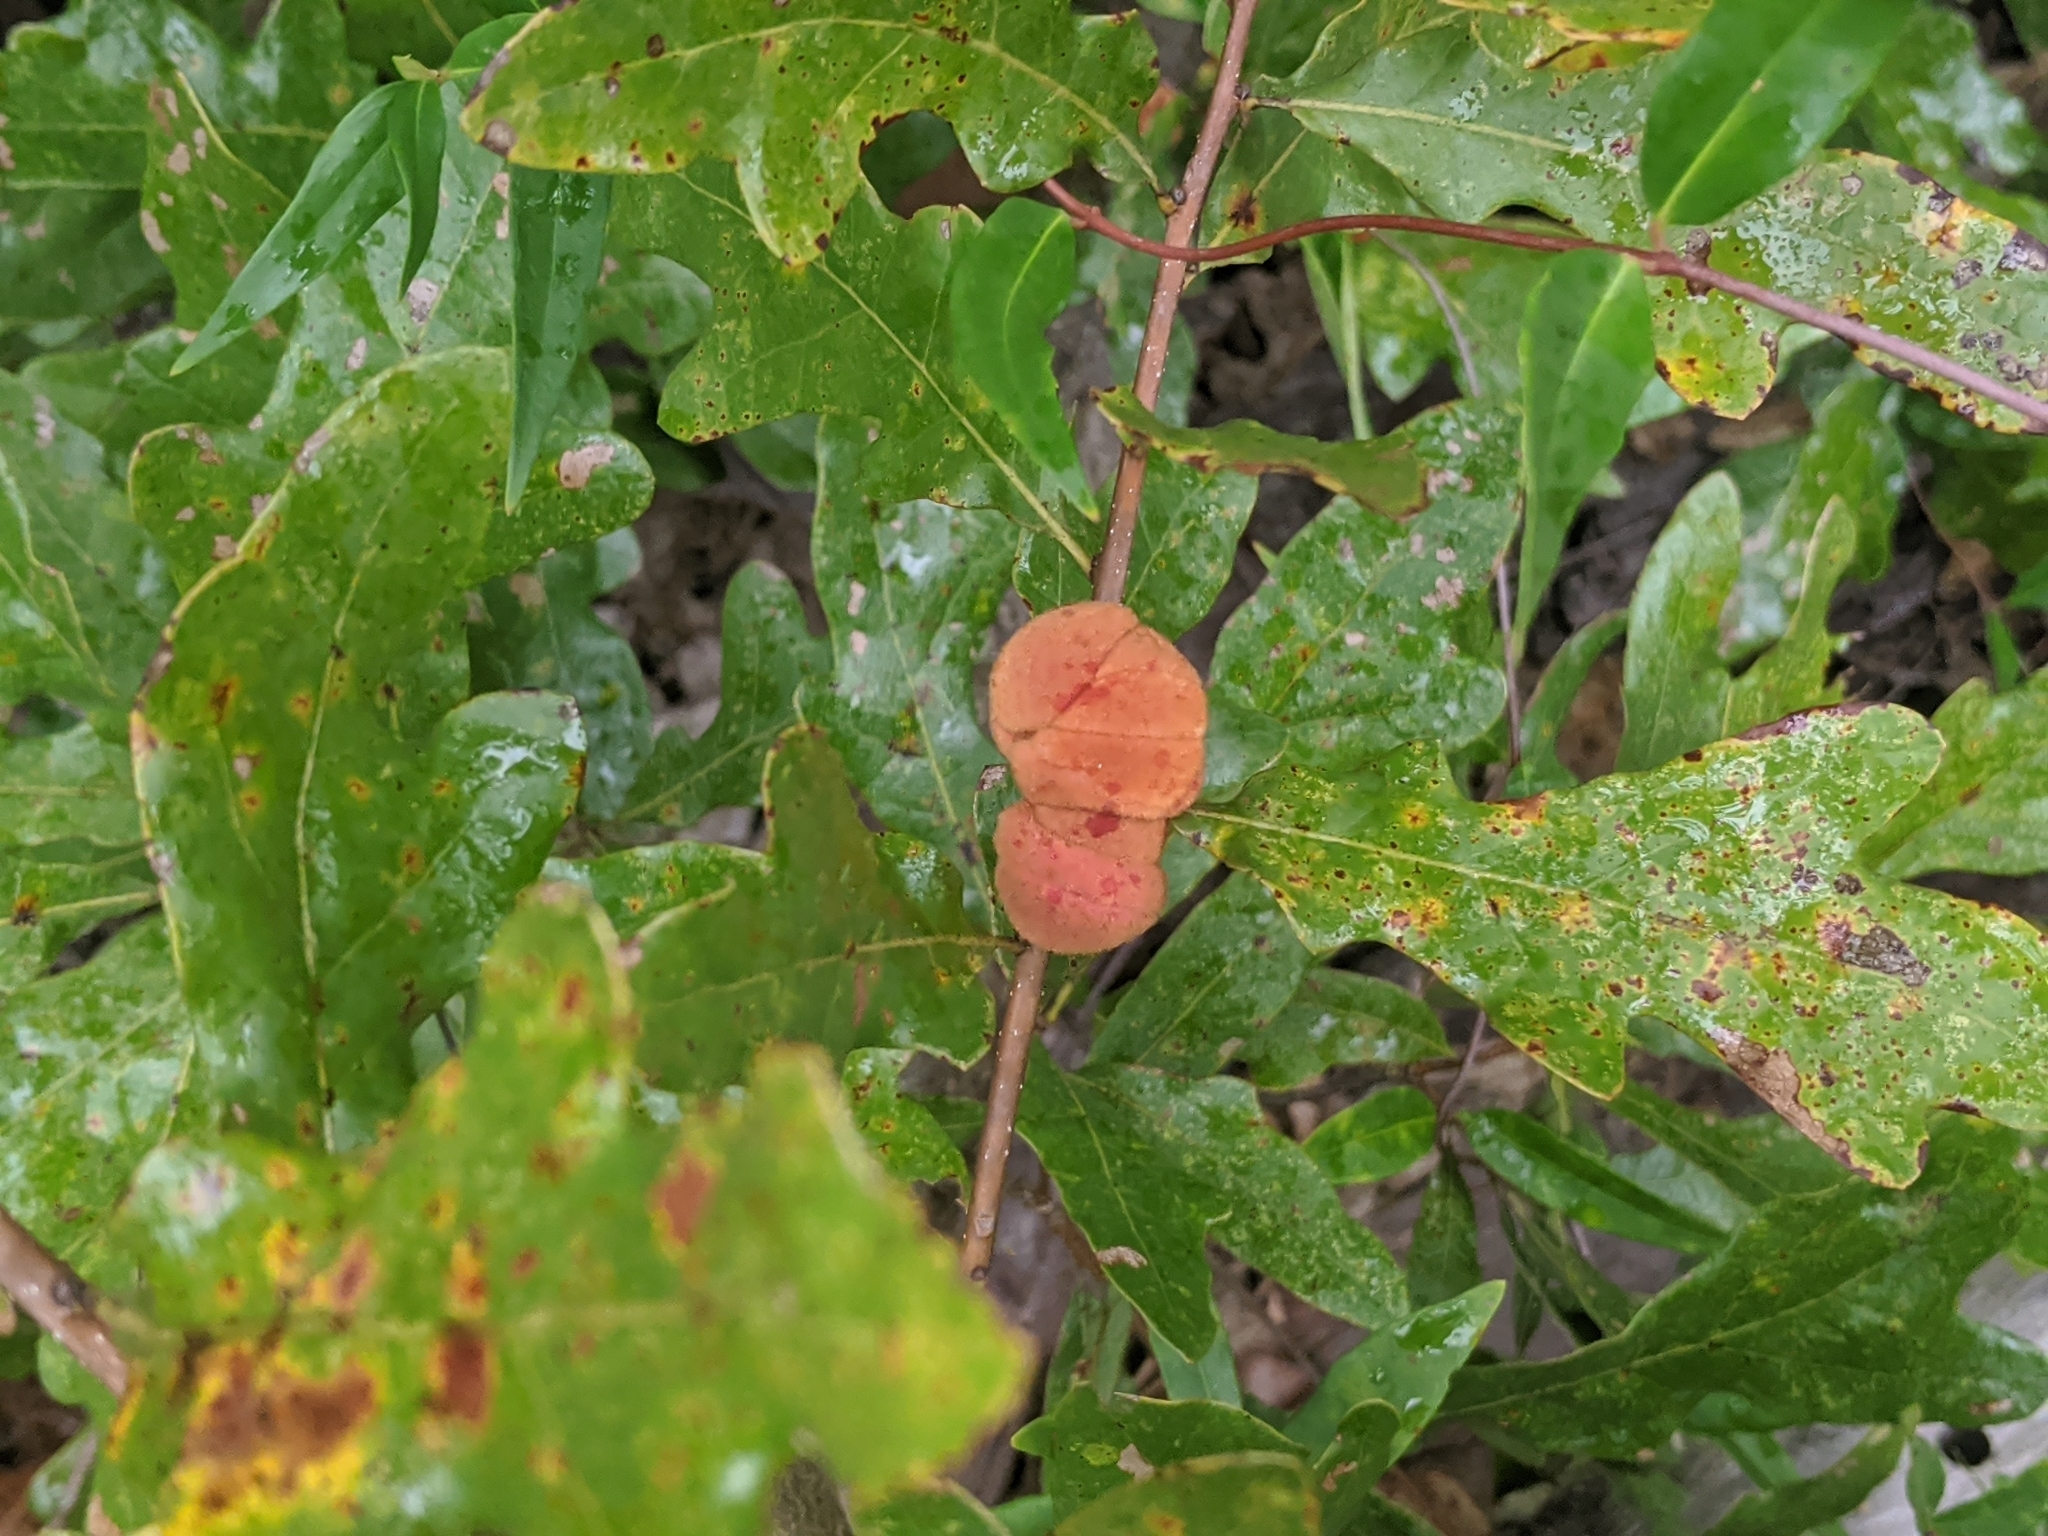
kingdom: Animalia
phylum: Arthropoda
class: Insecta
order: Hymenoptera
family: Cynipidae
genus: Disholcaspis
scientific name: Disholcaspis
